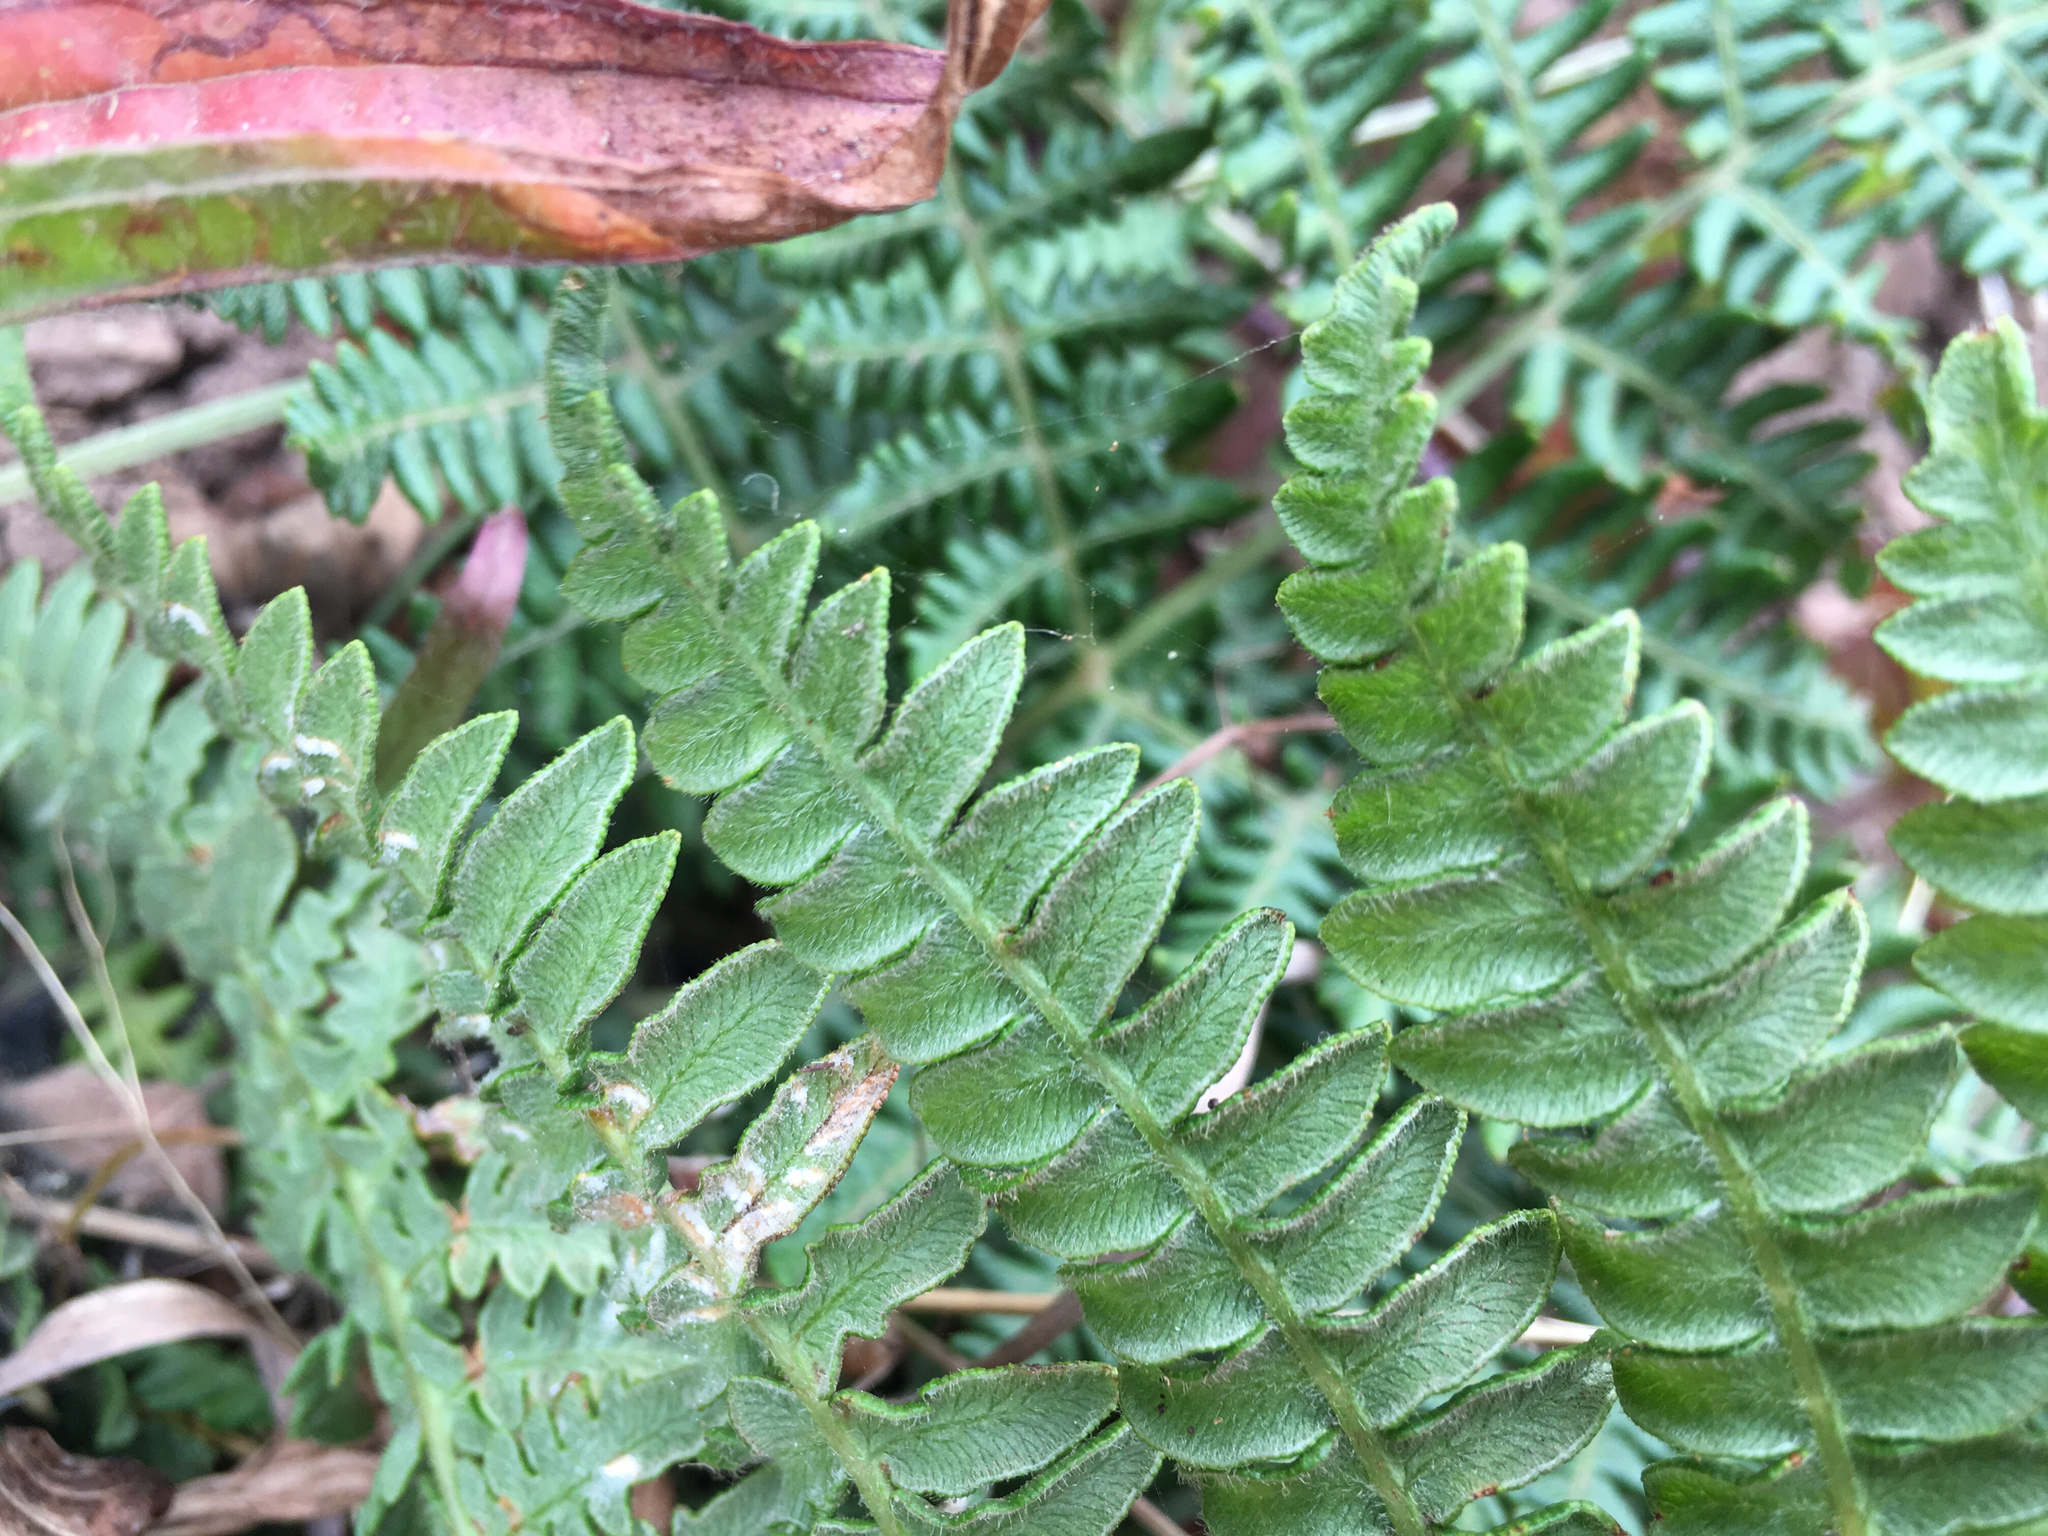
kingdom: Plantae
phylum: Tracheophyta
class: Polypodiopsida
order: Polypodiales
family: Dennstaedtiaceae
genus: Pteridium
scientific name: Pteridium aquilinum
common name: Bracken
